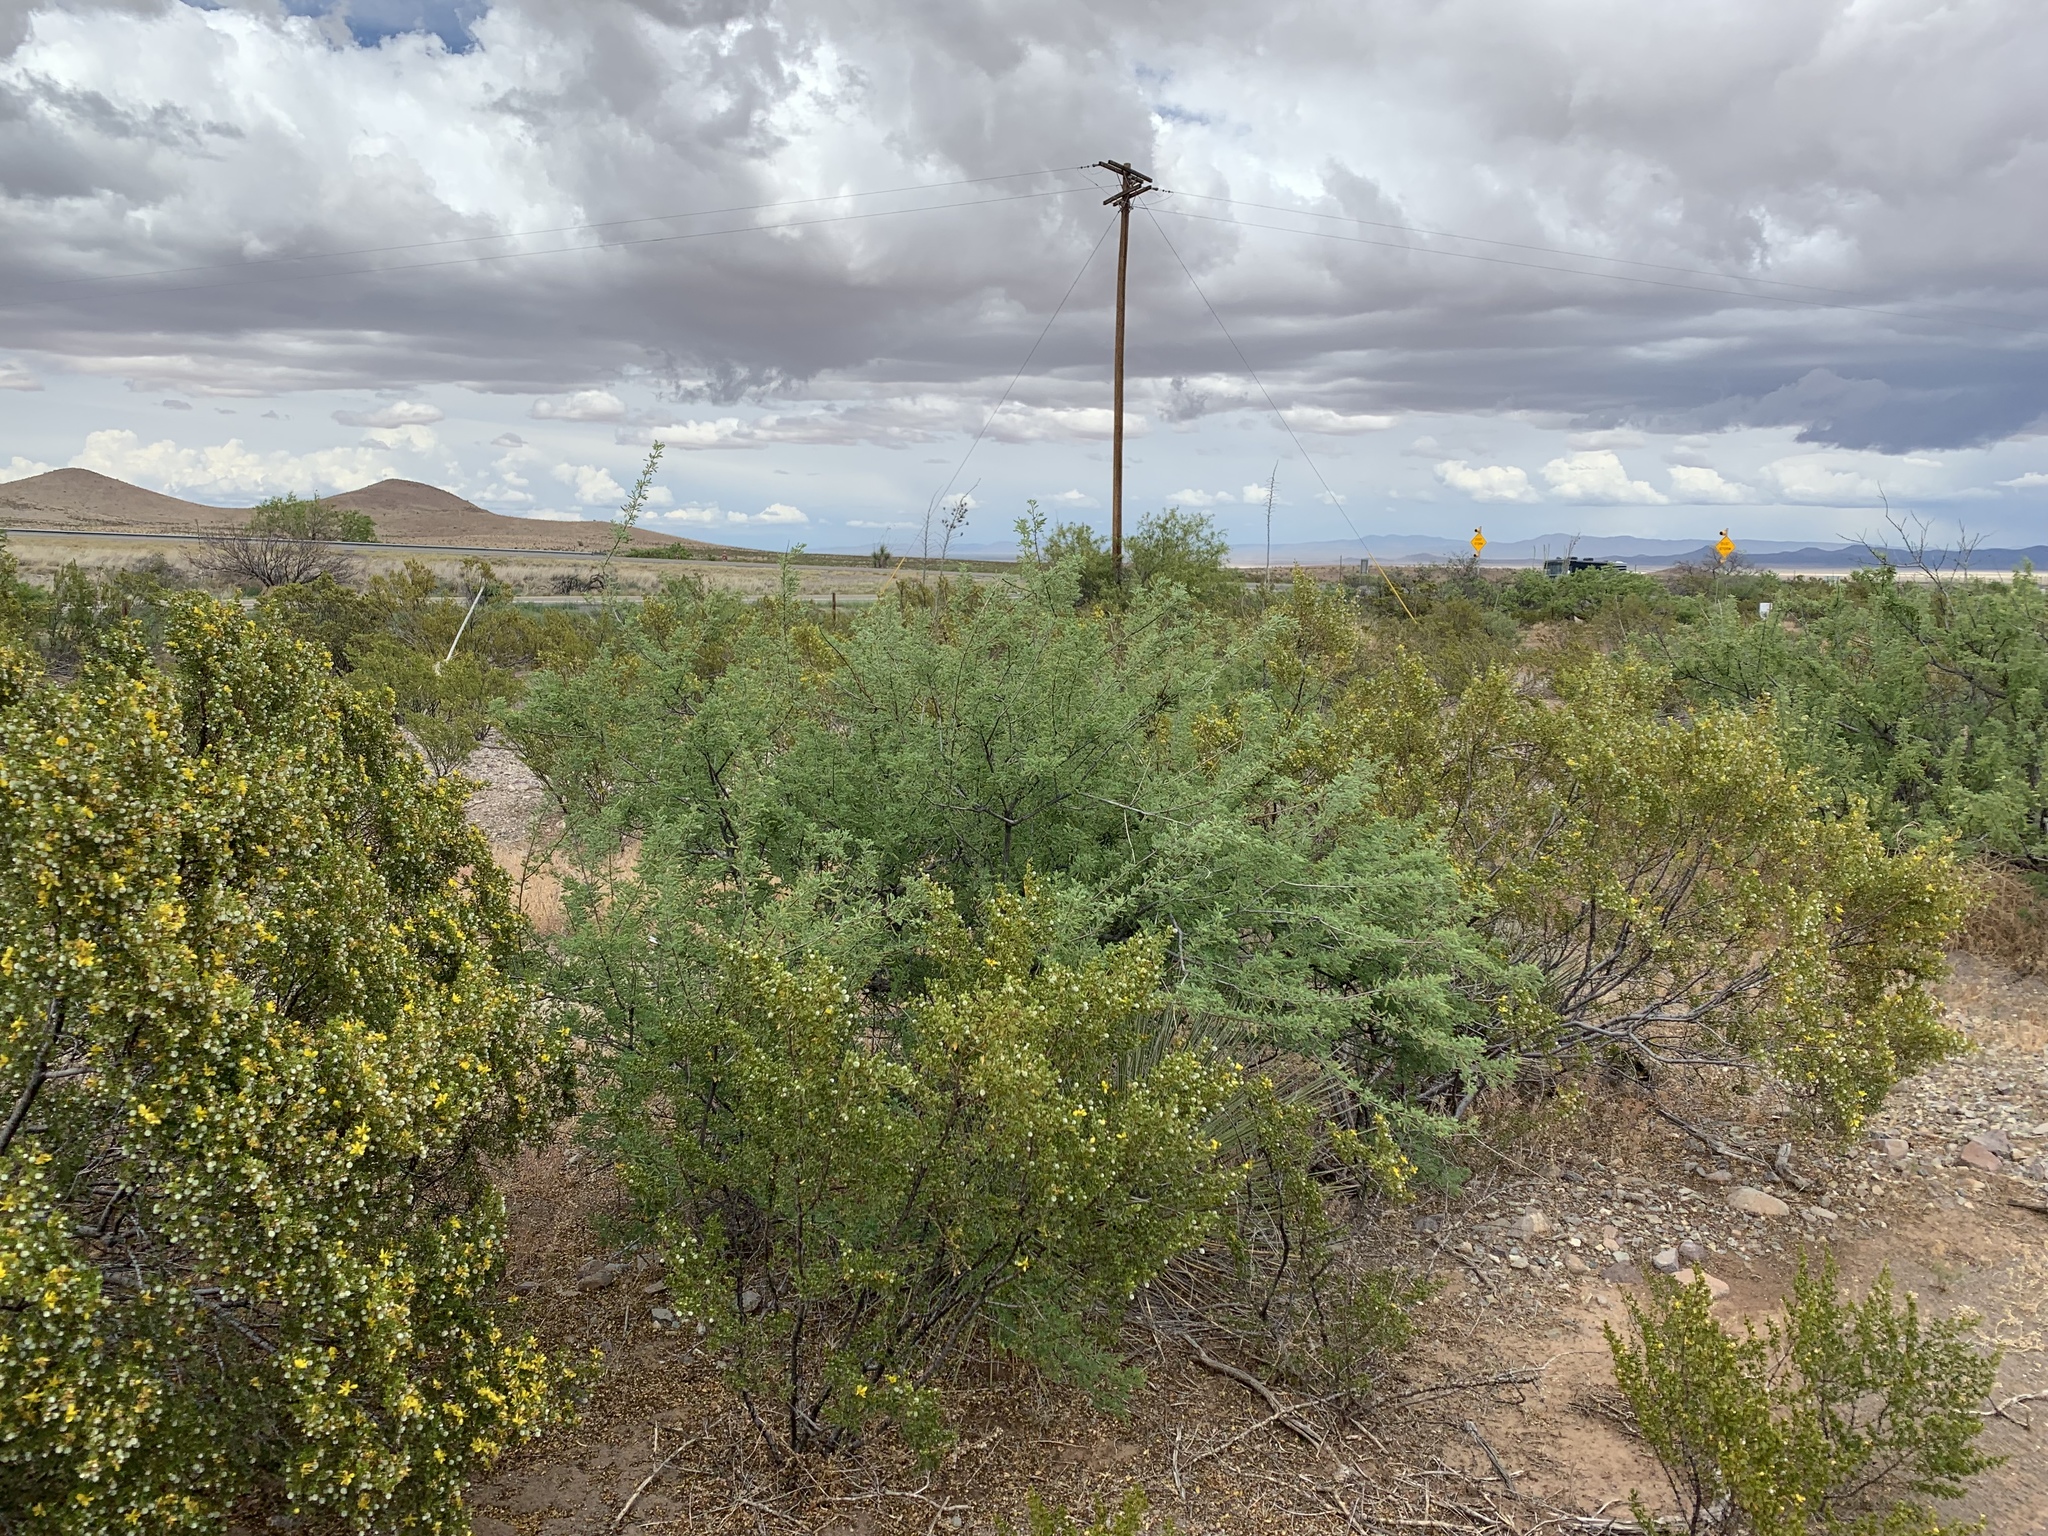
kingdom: Plantae
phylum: Tracheophyta
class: Magnoliopsida
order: Fabales
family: Fabaceae
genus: Senegalia
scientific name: Senegalia greggii
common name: Texas-mimosa
